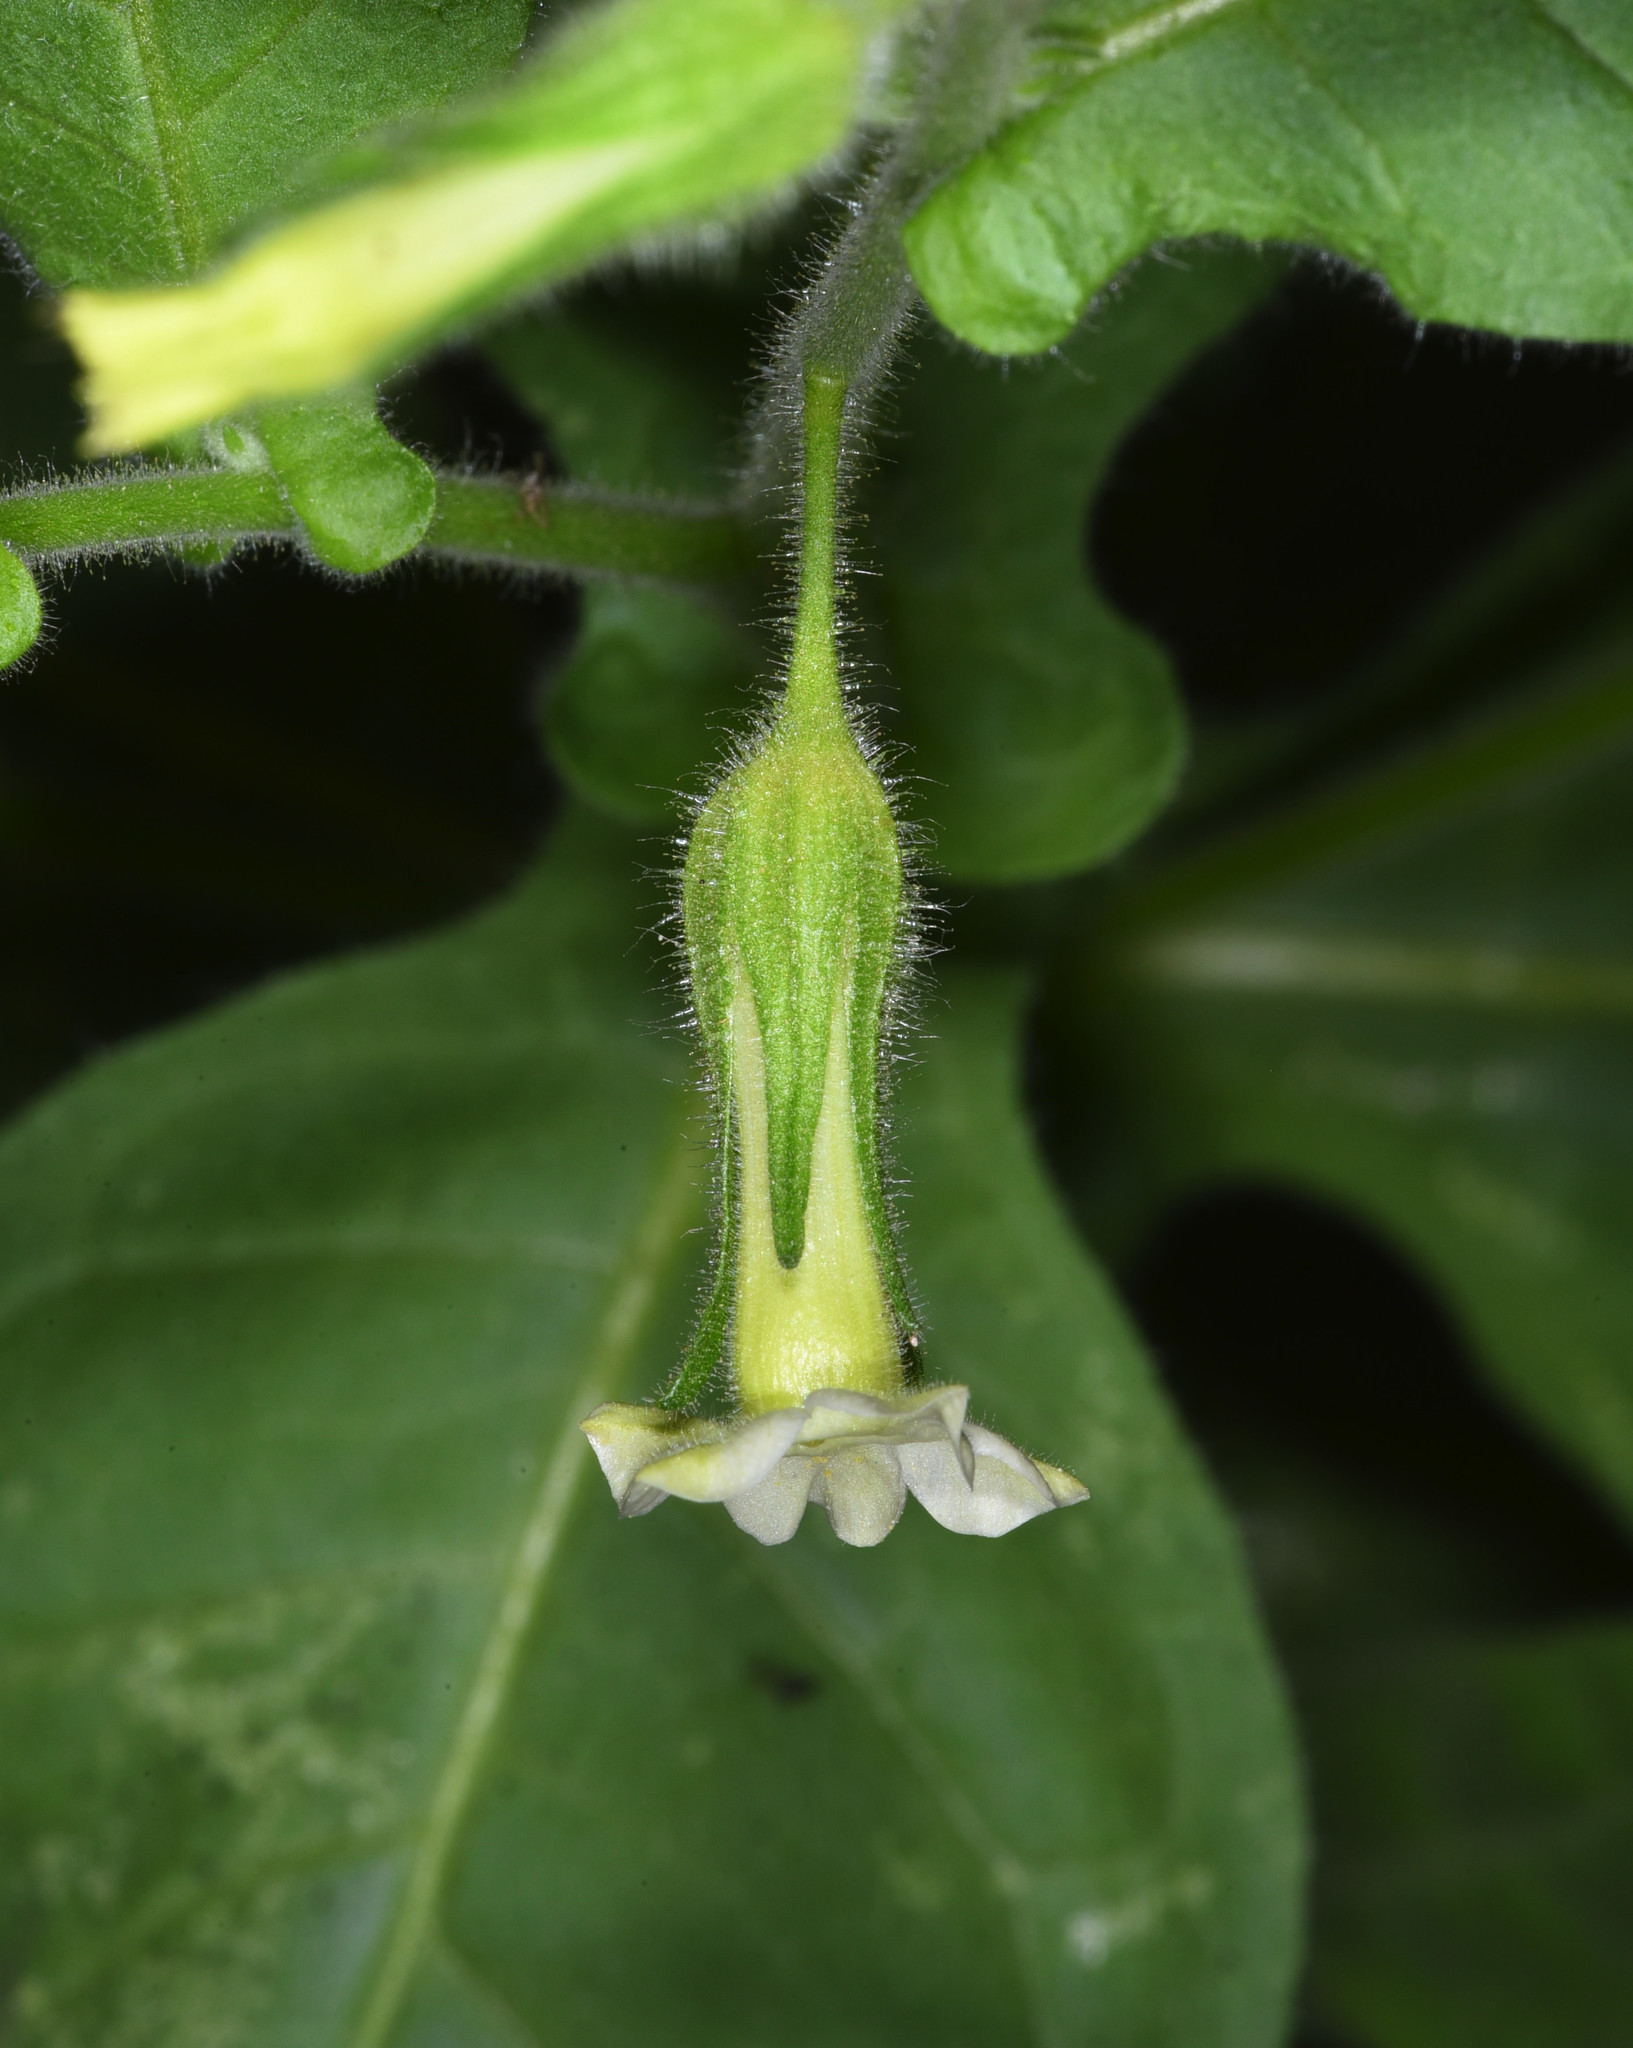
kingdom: Plantae
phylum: Tracheophyta
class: Magnoliopsida
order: Solanales
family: Solanaceae
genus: Nicotiana
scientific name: Nicotiana obtusifolia
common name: Desert tobacco
